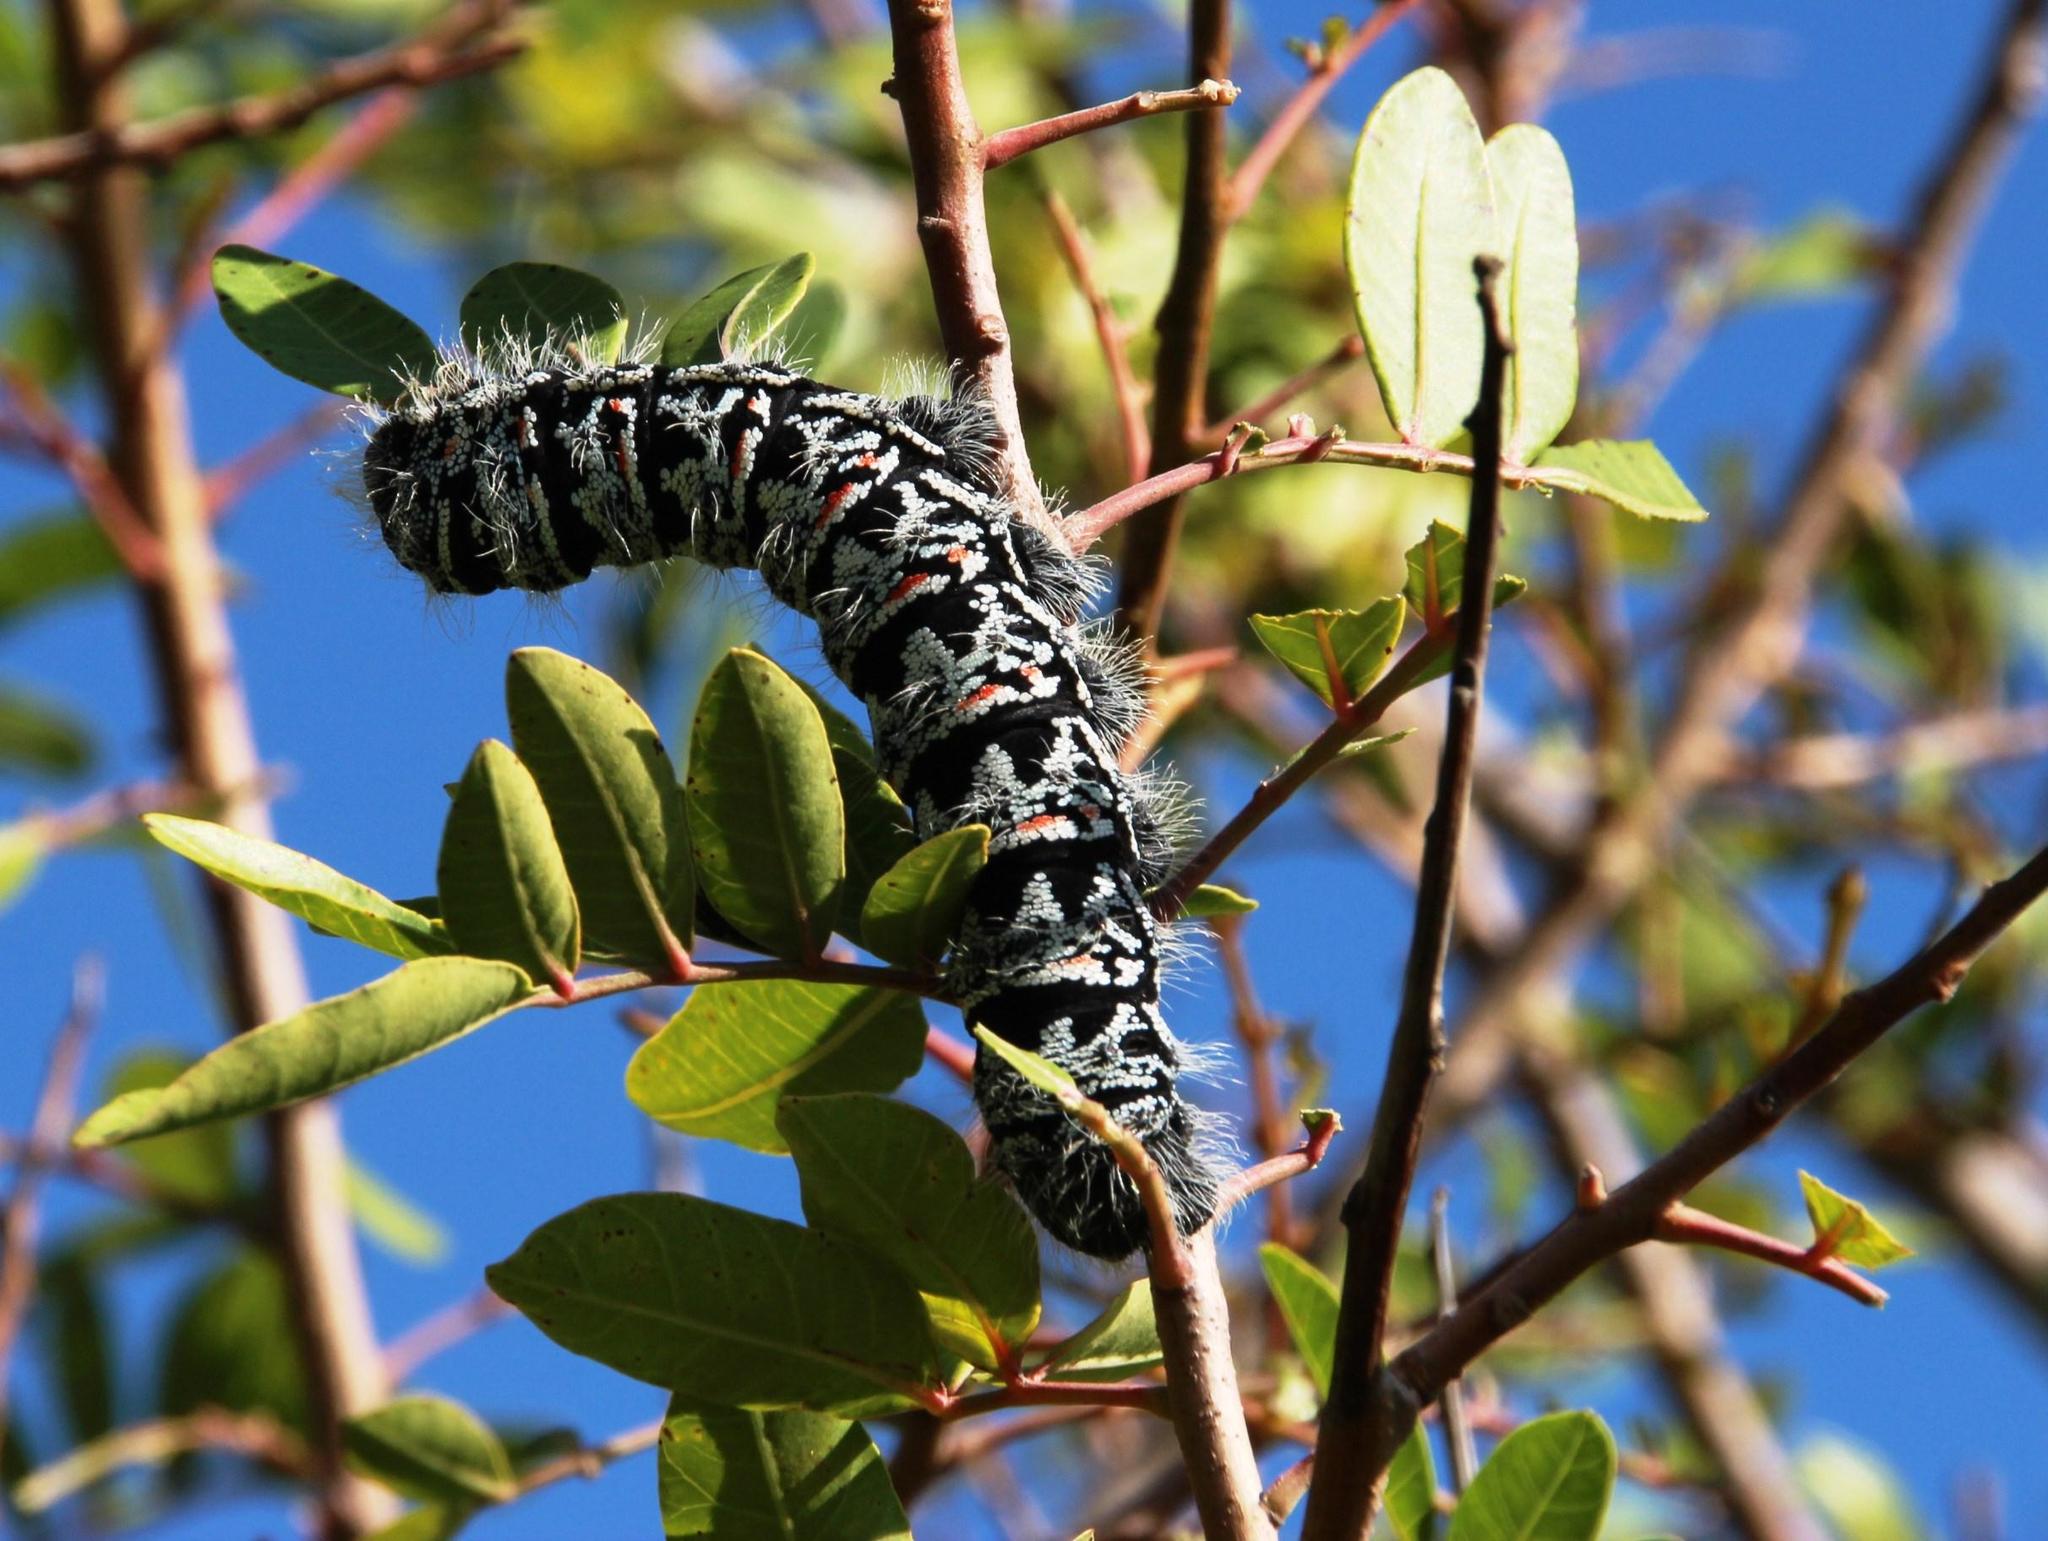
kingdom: Plantae
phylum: Tracheophyta
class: Magnoliopsida
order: Sapindales
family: Anacardiaceae
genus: Schinus
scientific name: Schinus terebinthifolia
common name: Brazilian peppertree
